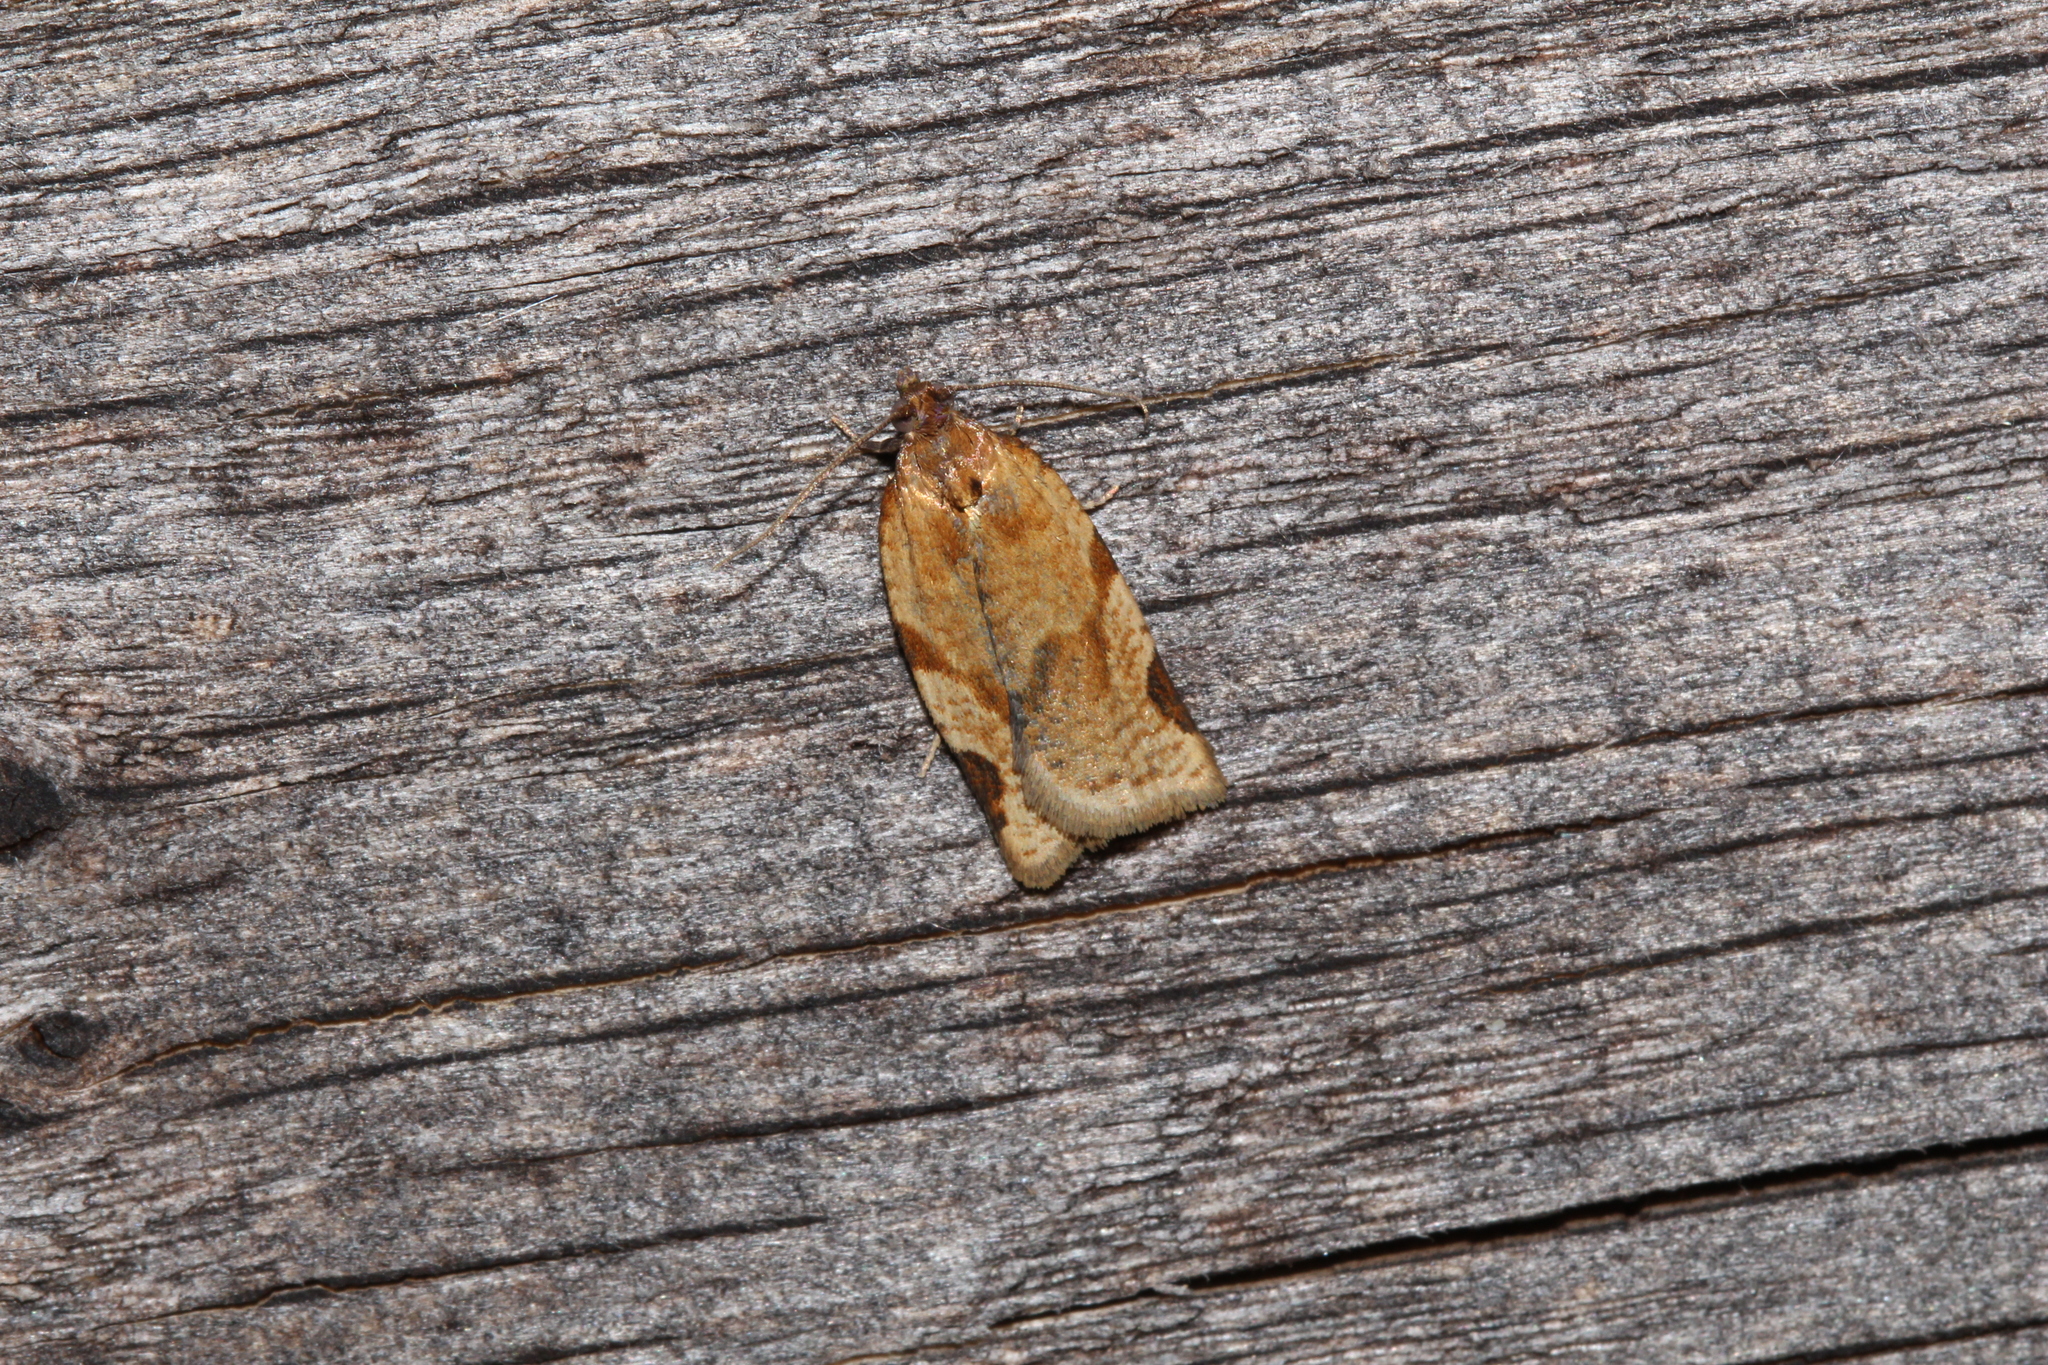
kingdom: Animalia
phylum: Arthropoda
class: Insecta
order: Lepidoptera
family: Tortricidae
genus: Paramesia
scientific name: Paramesia gnomana
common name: Small straw twist
